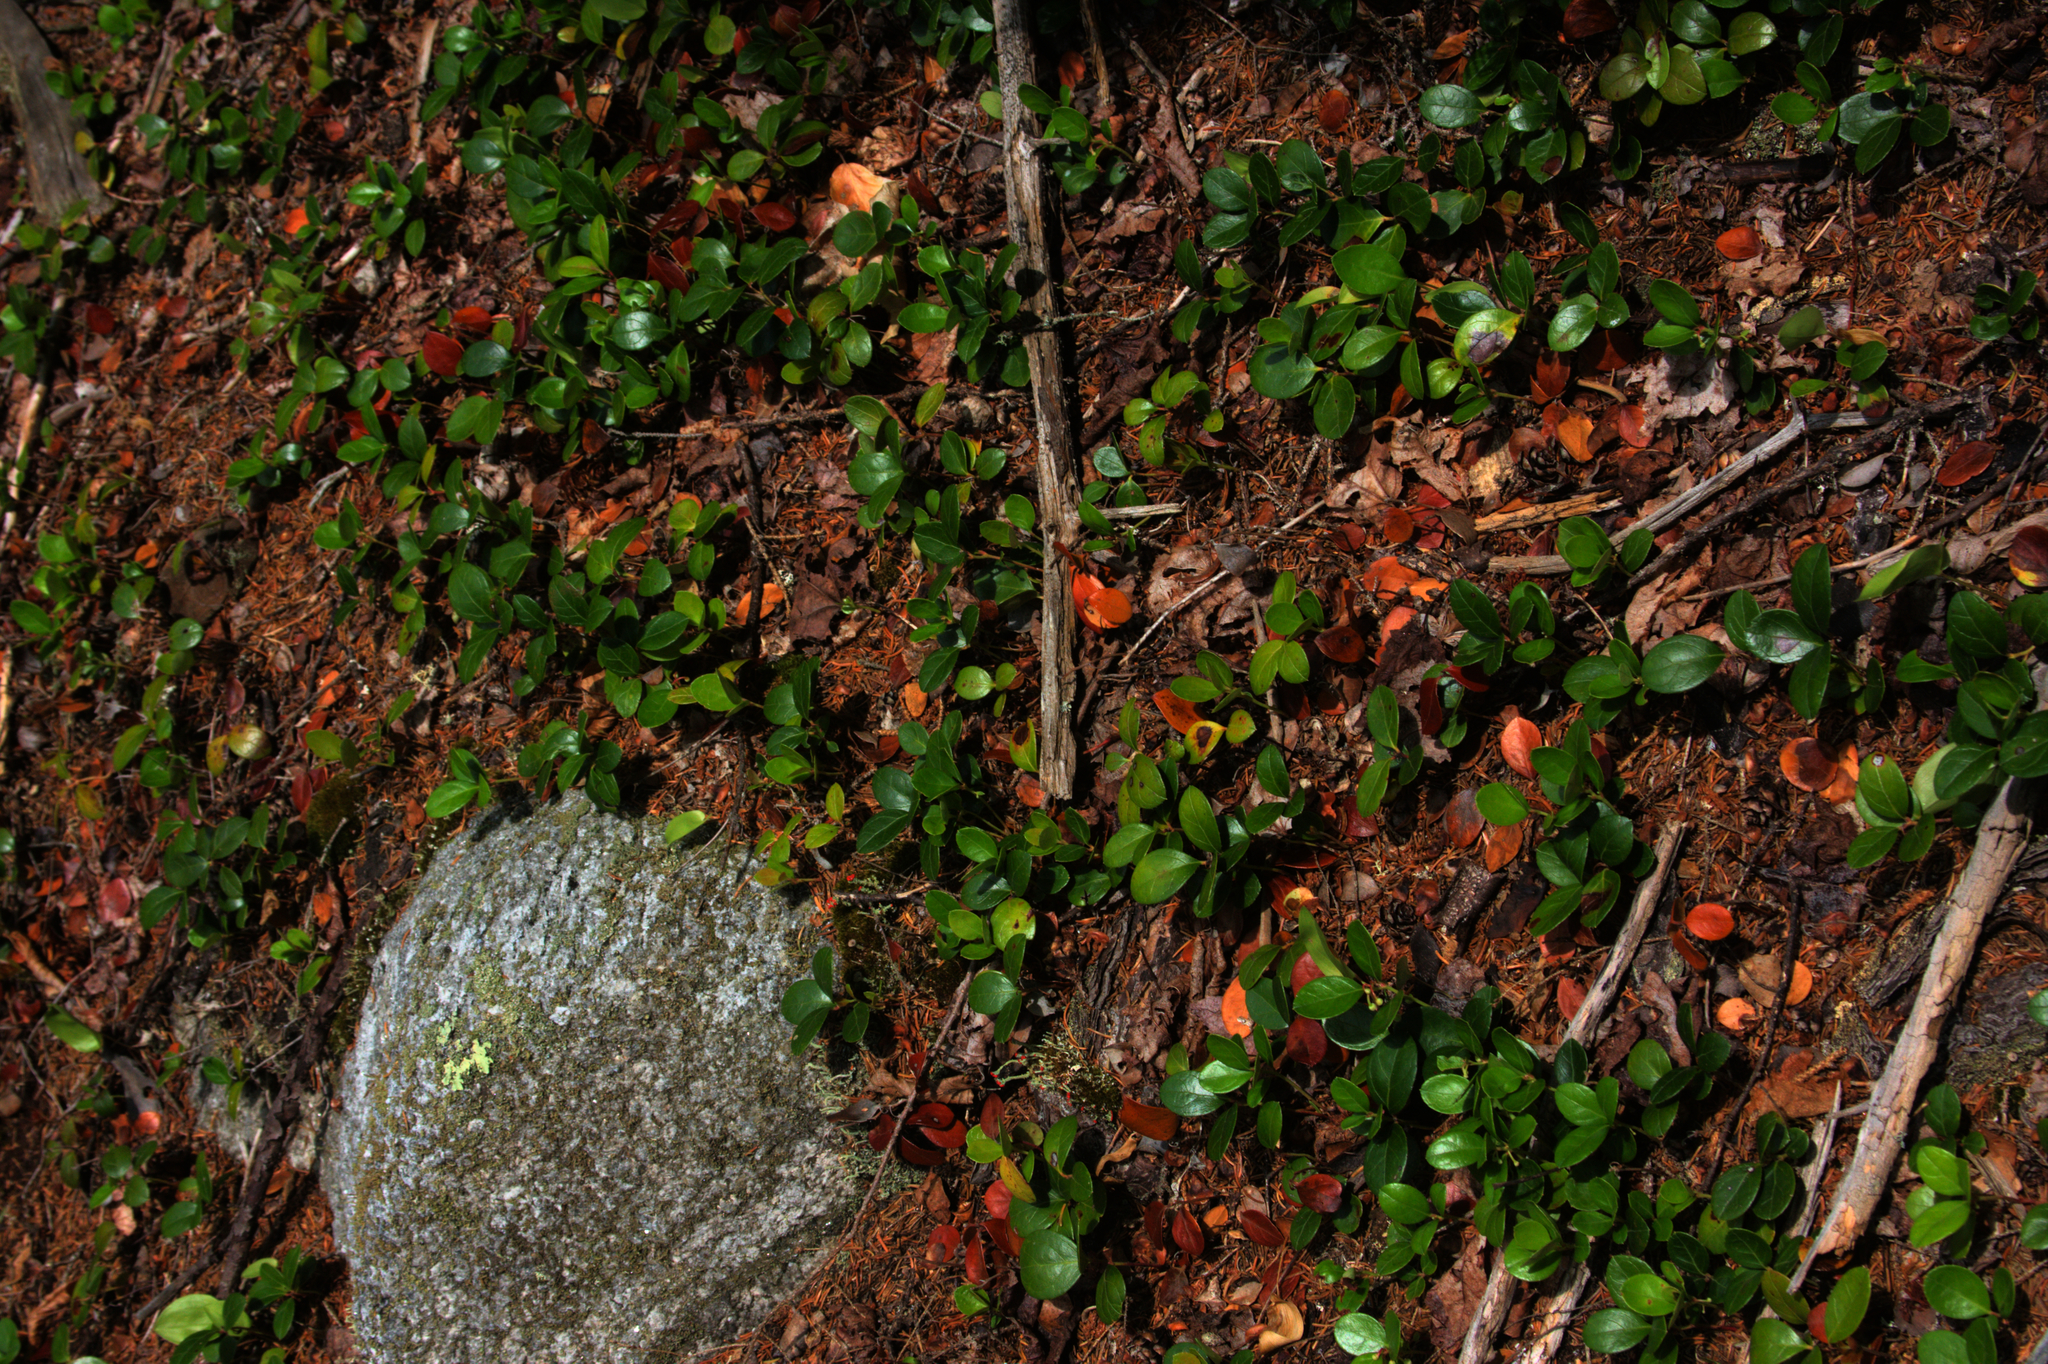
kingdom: Plantae
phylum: Tracheophyta
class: Magnoliopsida
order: Ericales
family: Ericaceae
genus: Gaultheria
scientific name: Gaultheria procumbens
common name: Checkerberry
